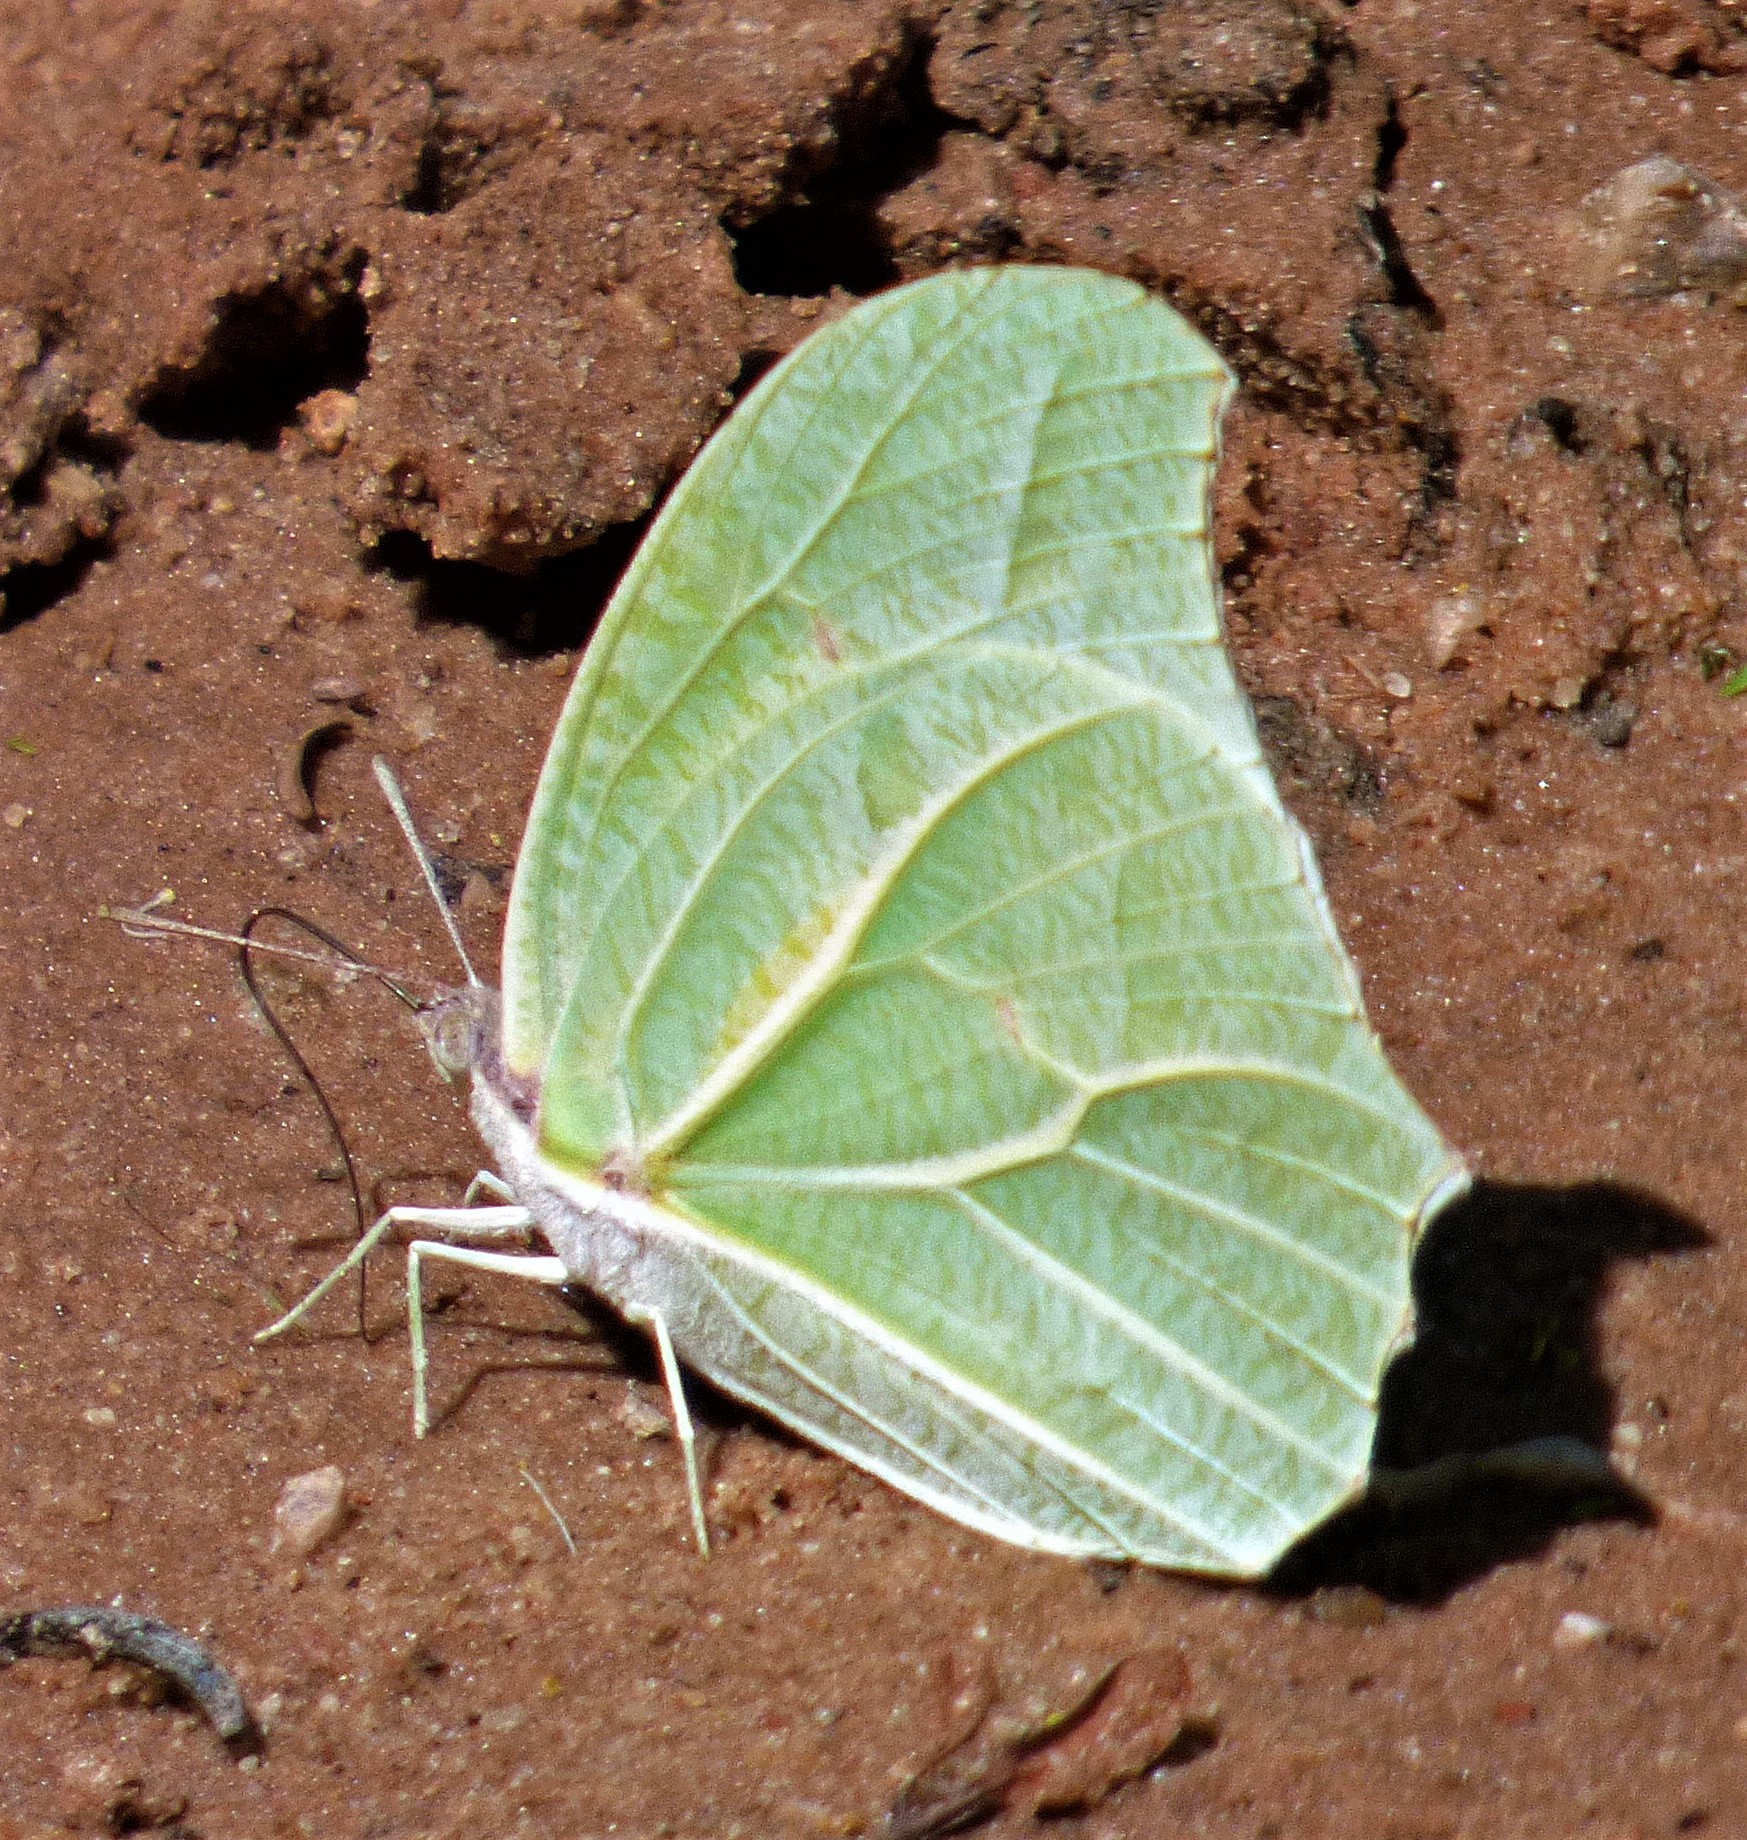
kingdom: Animalia
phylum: Arthropoda
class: Insecta
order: Lepidoptera
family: Pieridae
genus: Anteos
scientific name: Anteos clorinde
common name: White angled sulphur
